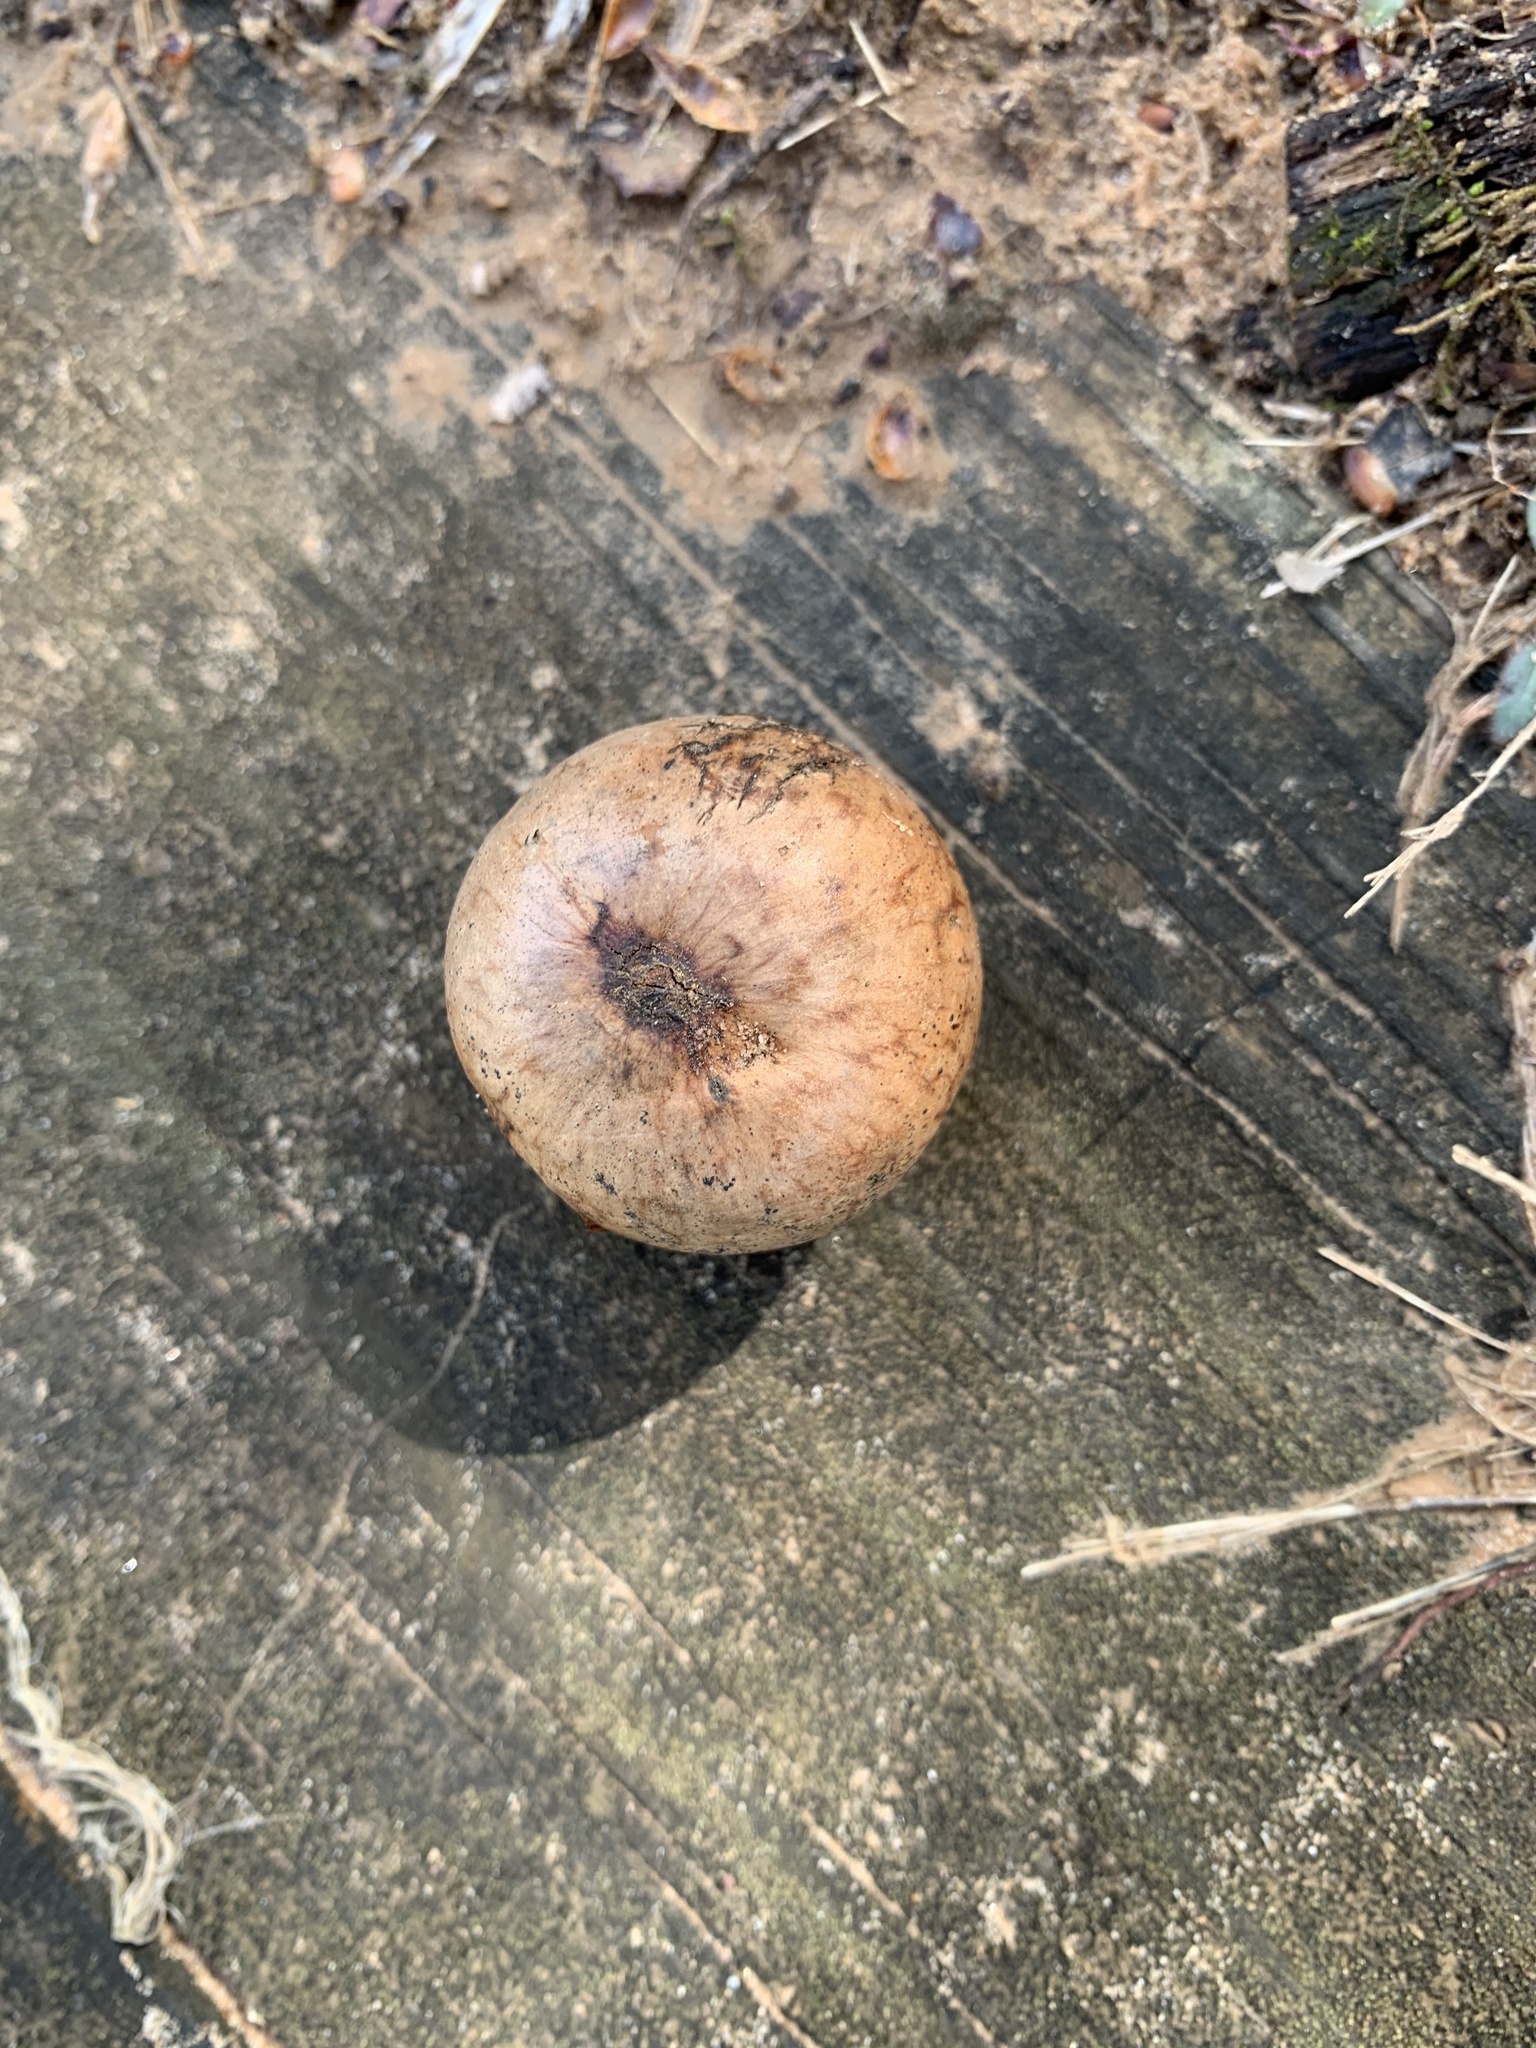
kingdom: Animalia
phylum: Arthropoda
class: Insecta
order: Hymenoptera
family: Cynipidae
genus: Amphibolips
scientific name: Amphibolips gainesi
